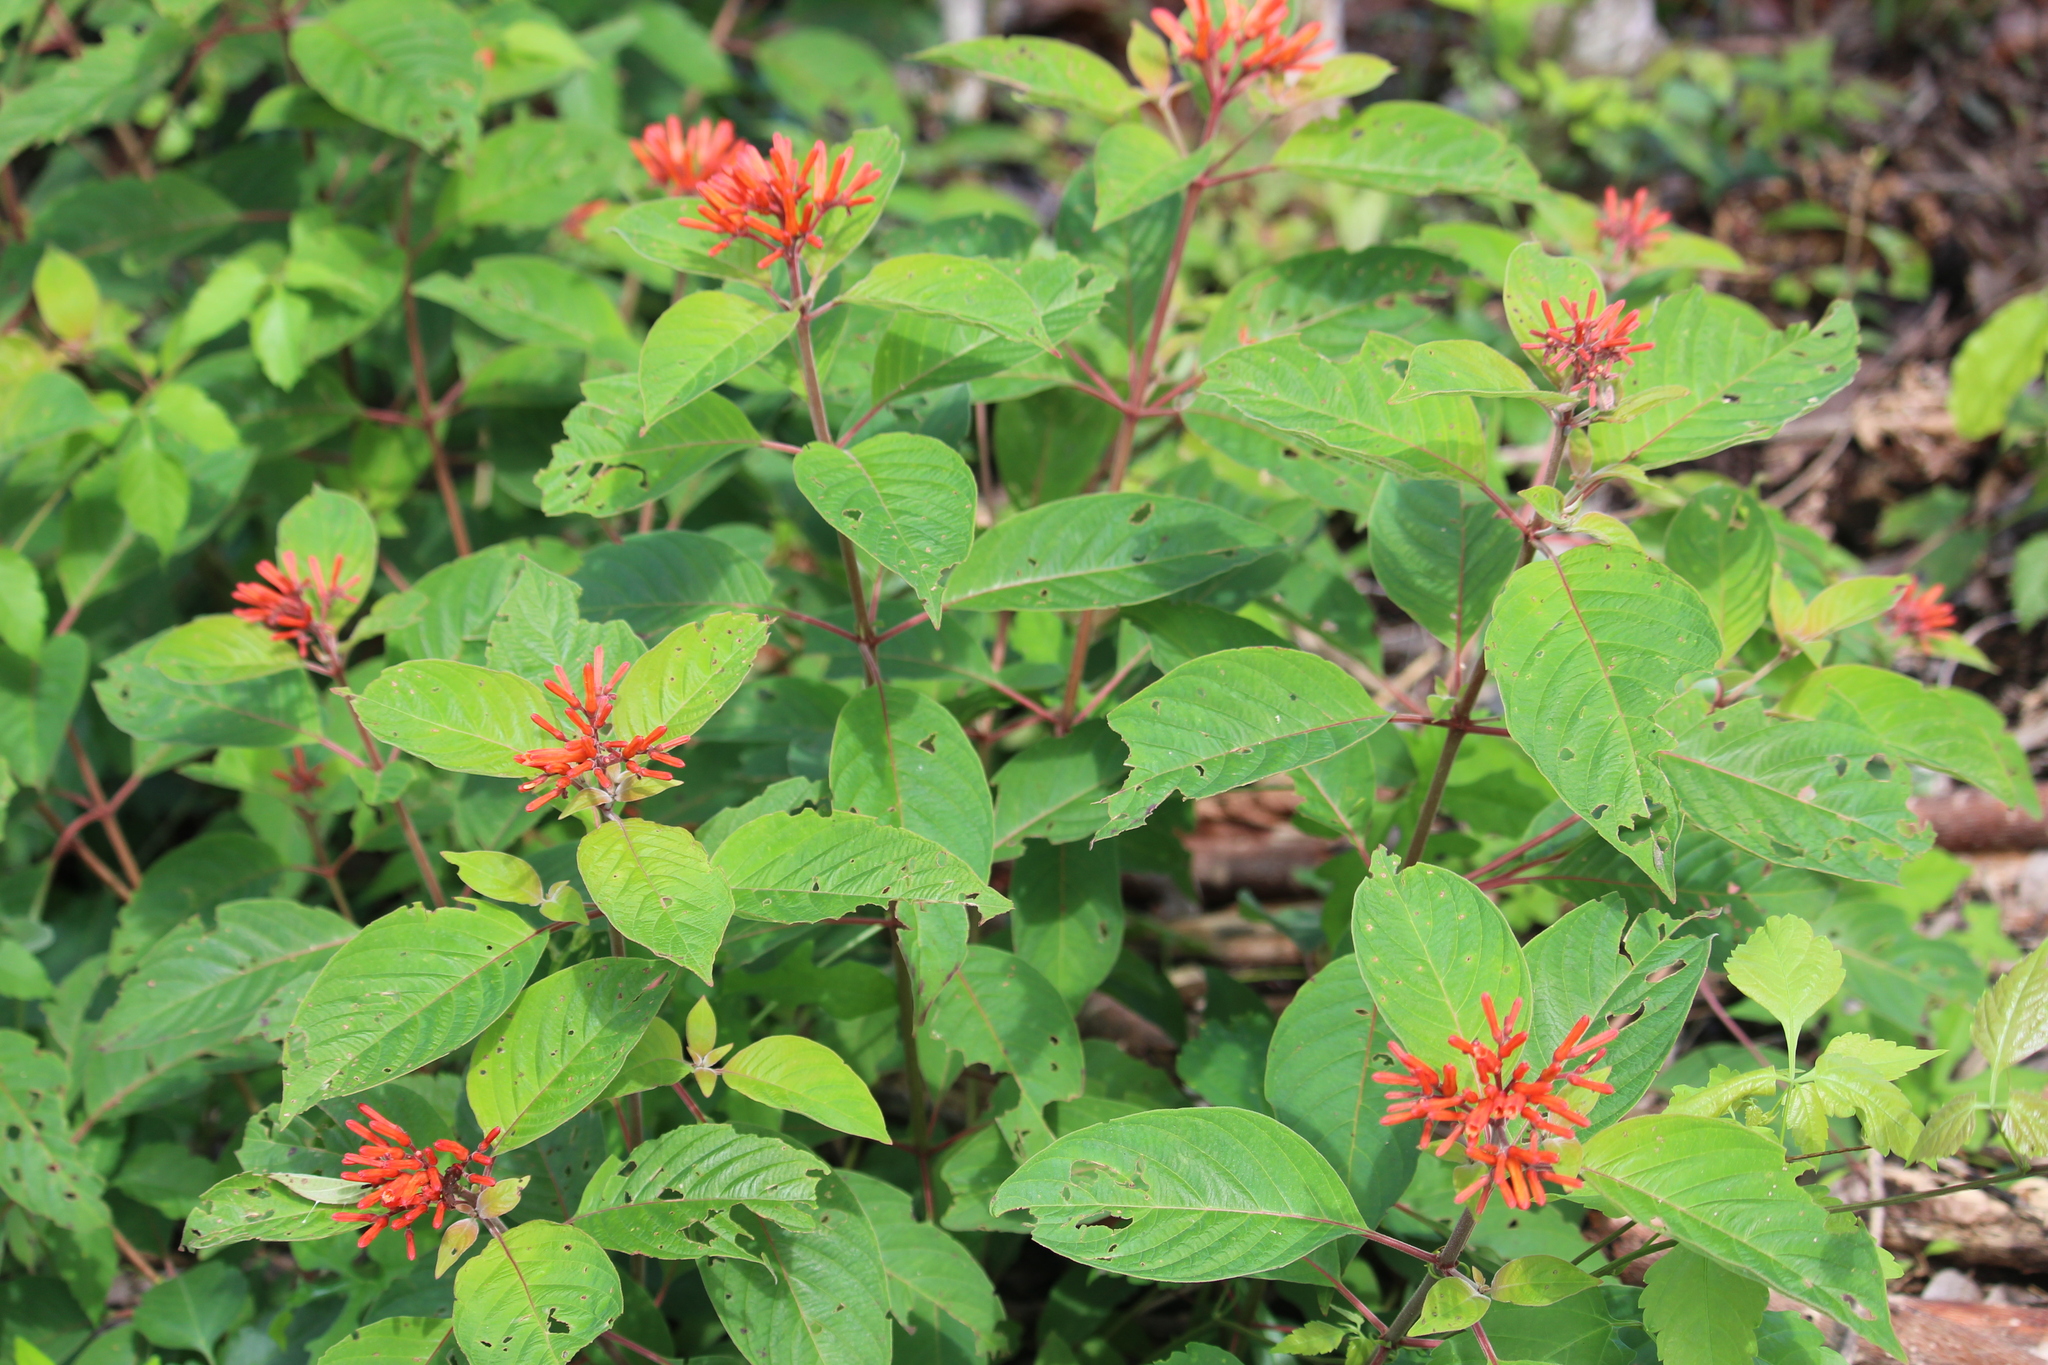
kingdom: Plantae
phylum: Tracheophyta
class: Magnoliopsida
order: Gentianales
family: Rubiaceae
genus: Hamelia
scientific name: Hamelia patens
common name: Redhead
